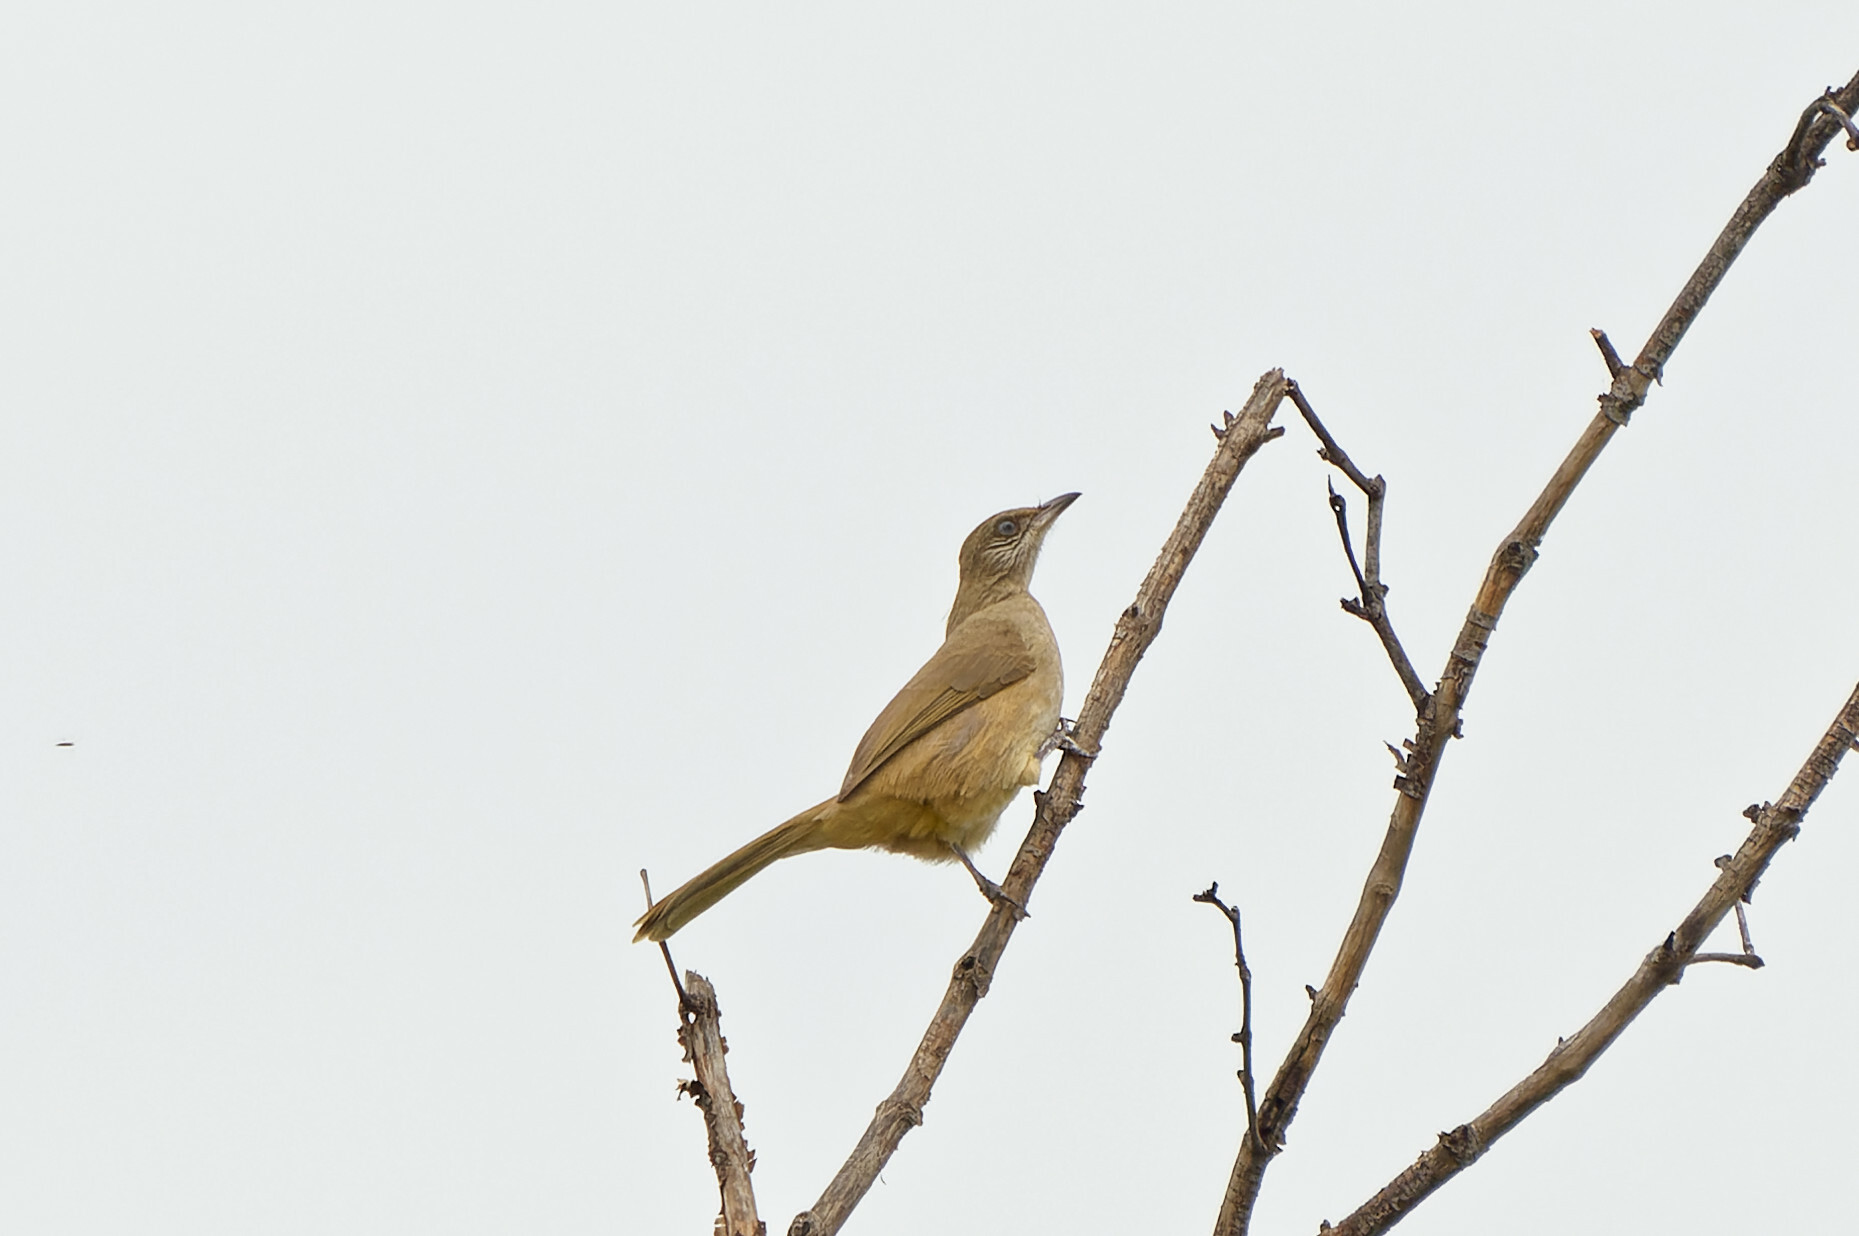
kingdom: Animalia
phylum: Chordata
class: Aves
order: Passeriformes
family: Pycnonotidae
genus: Pycnonotus
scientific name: Pycnonotus blanfordi
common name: Streak-eared bulbul
